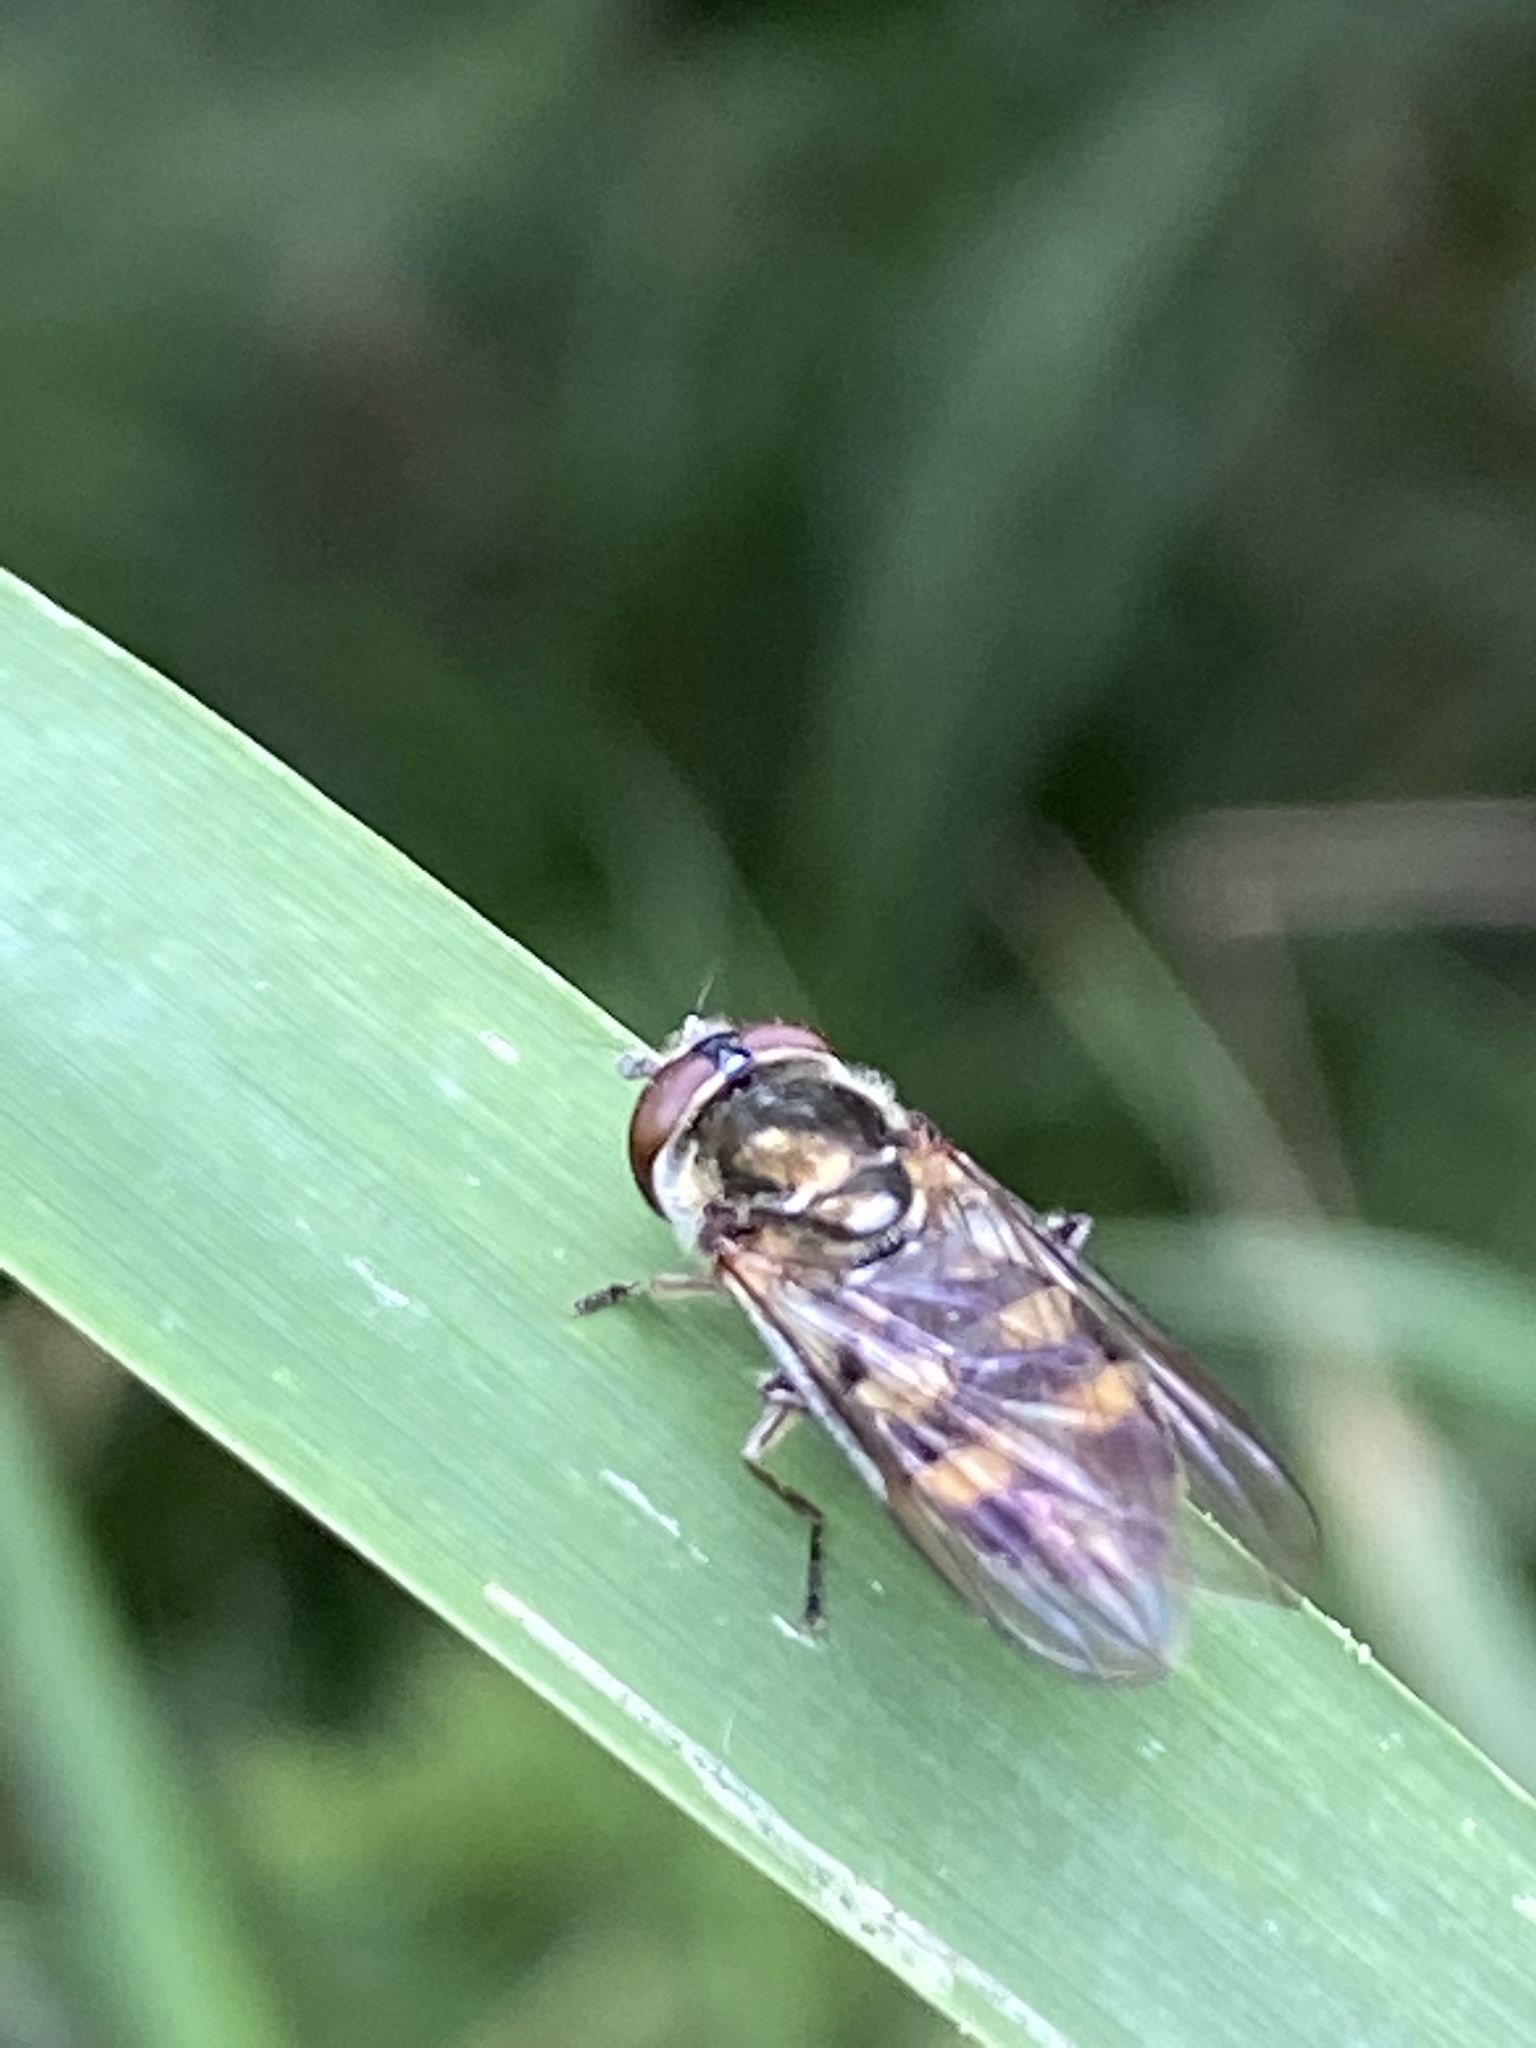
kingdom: Animalia
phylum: Arthropoda
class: Insecta
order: Diptera
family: Syrphidae
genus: Xanthandrus
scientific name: Xanthandrus comtus
